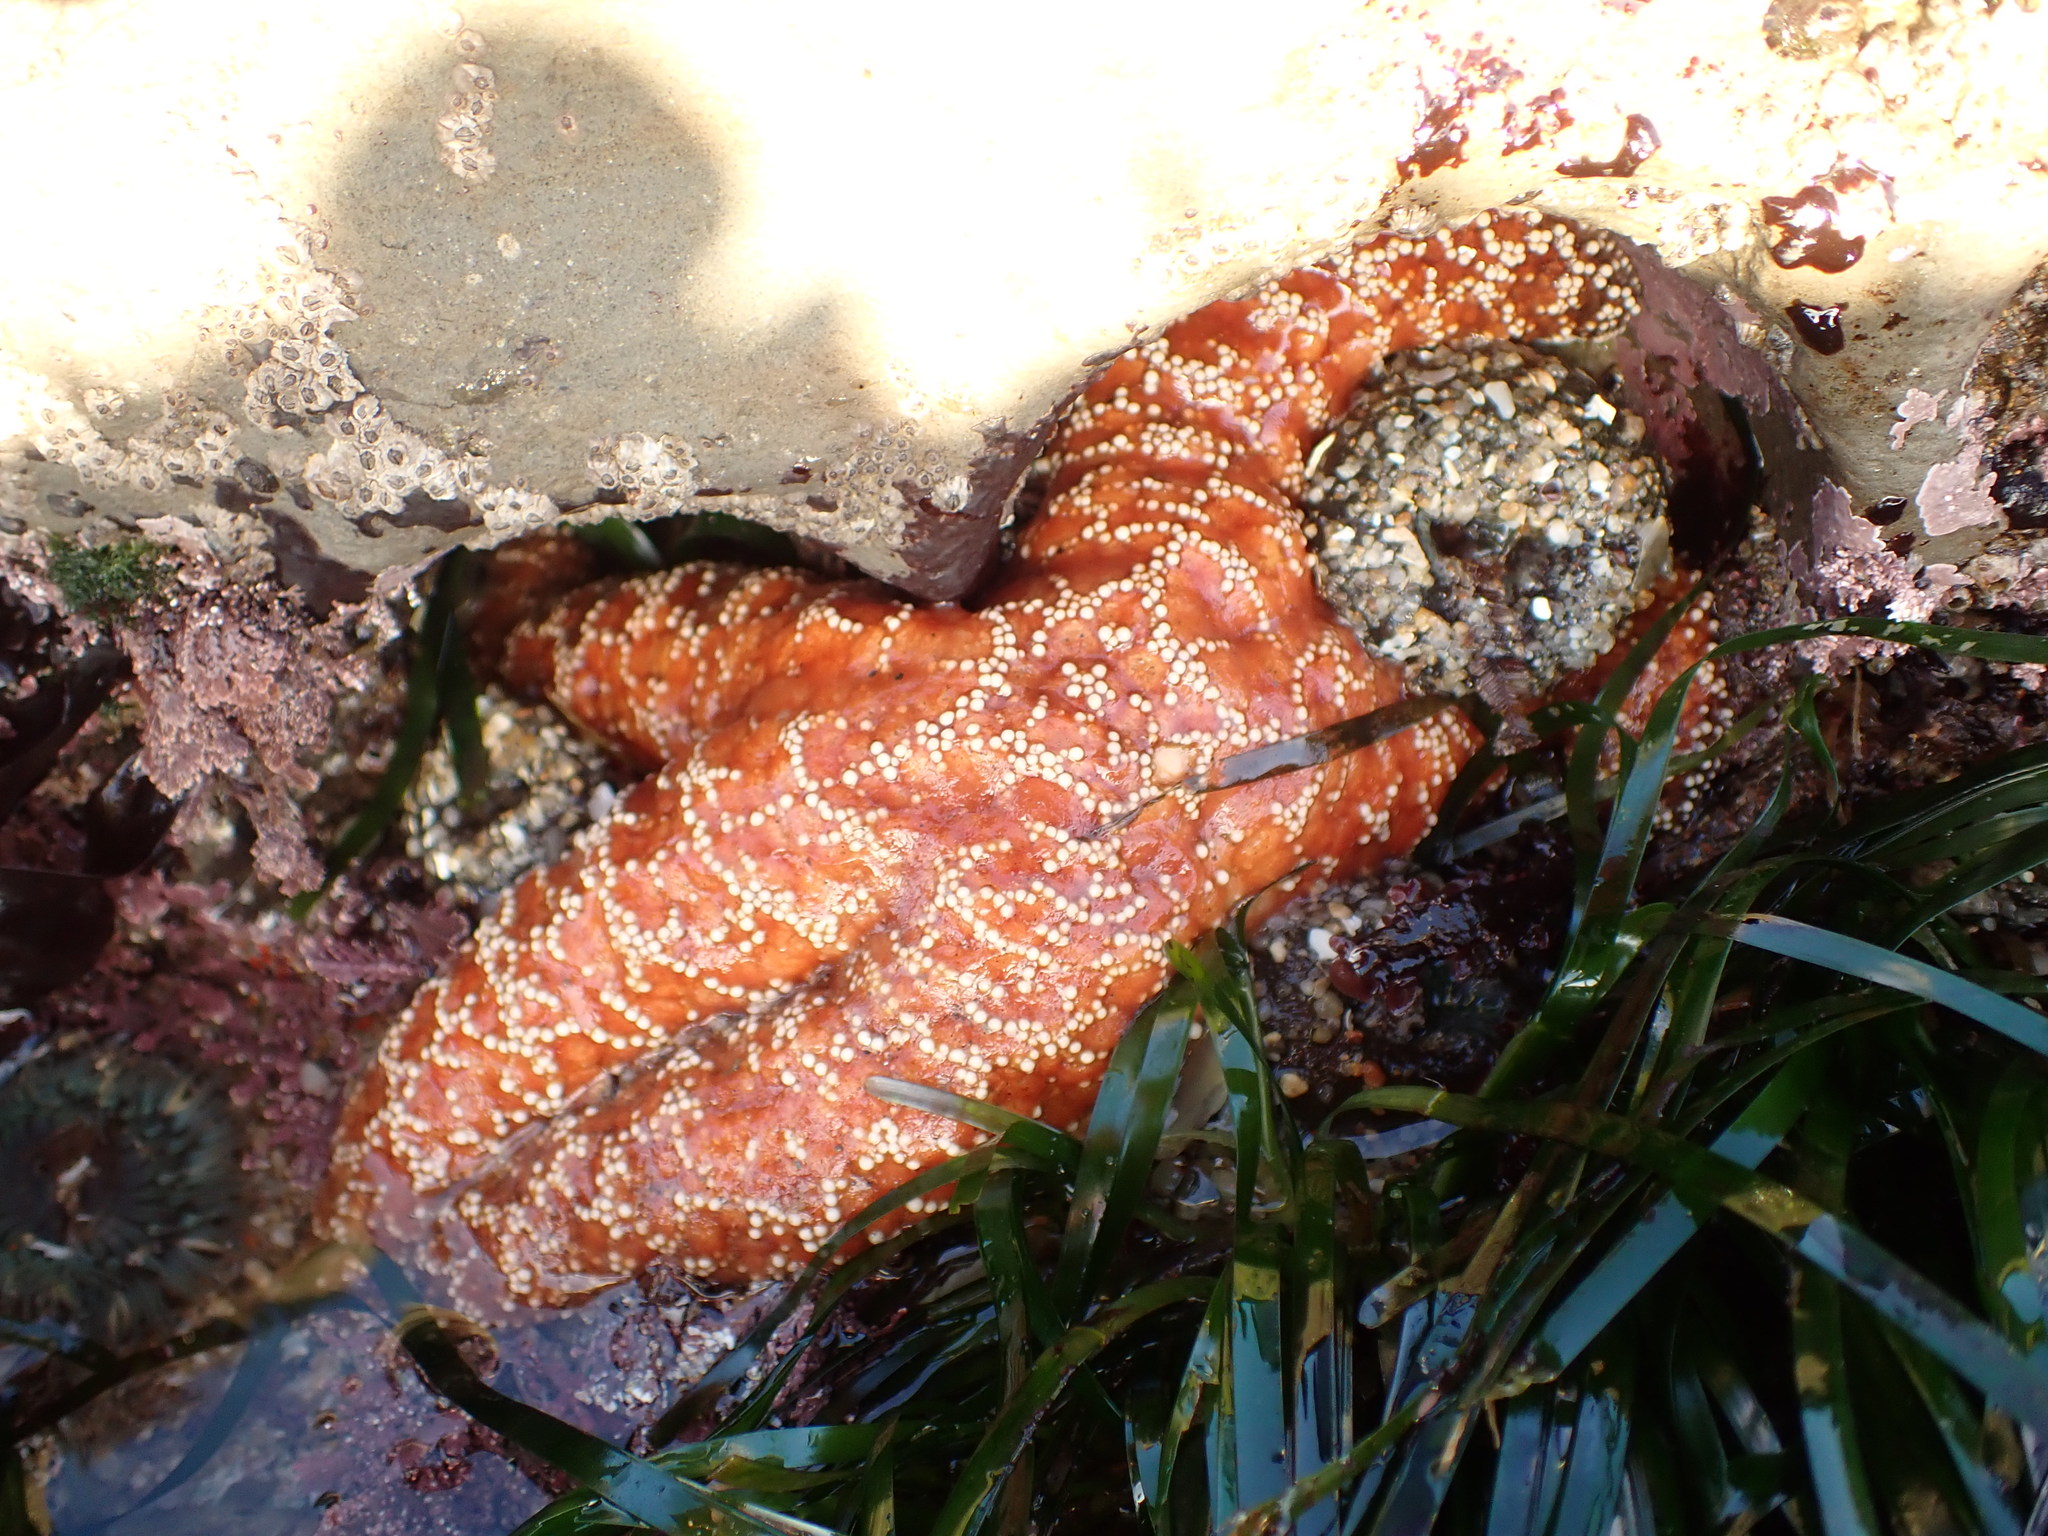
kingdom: Animalia
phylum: Echinodermata
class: Asteroidea
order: Forcipulatida
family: Asteriidae
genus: Pisaster
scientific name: Pisaster ochraceus
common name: Ochre stars
